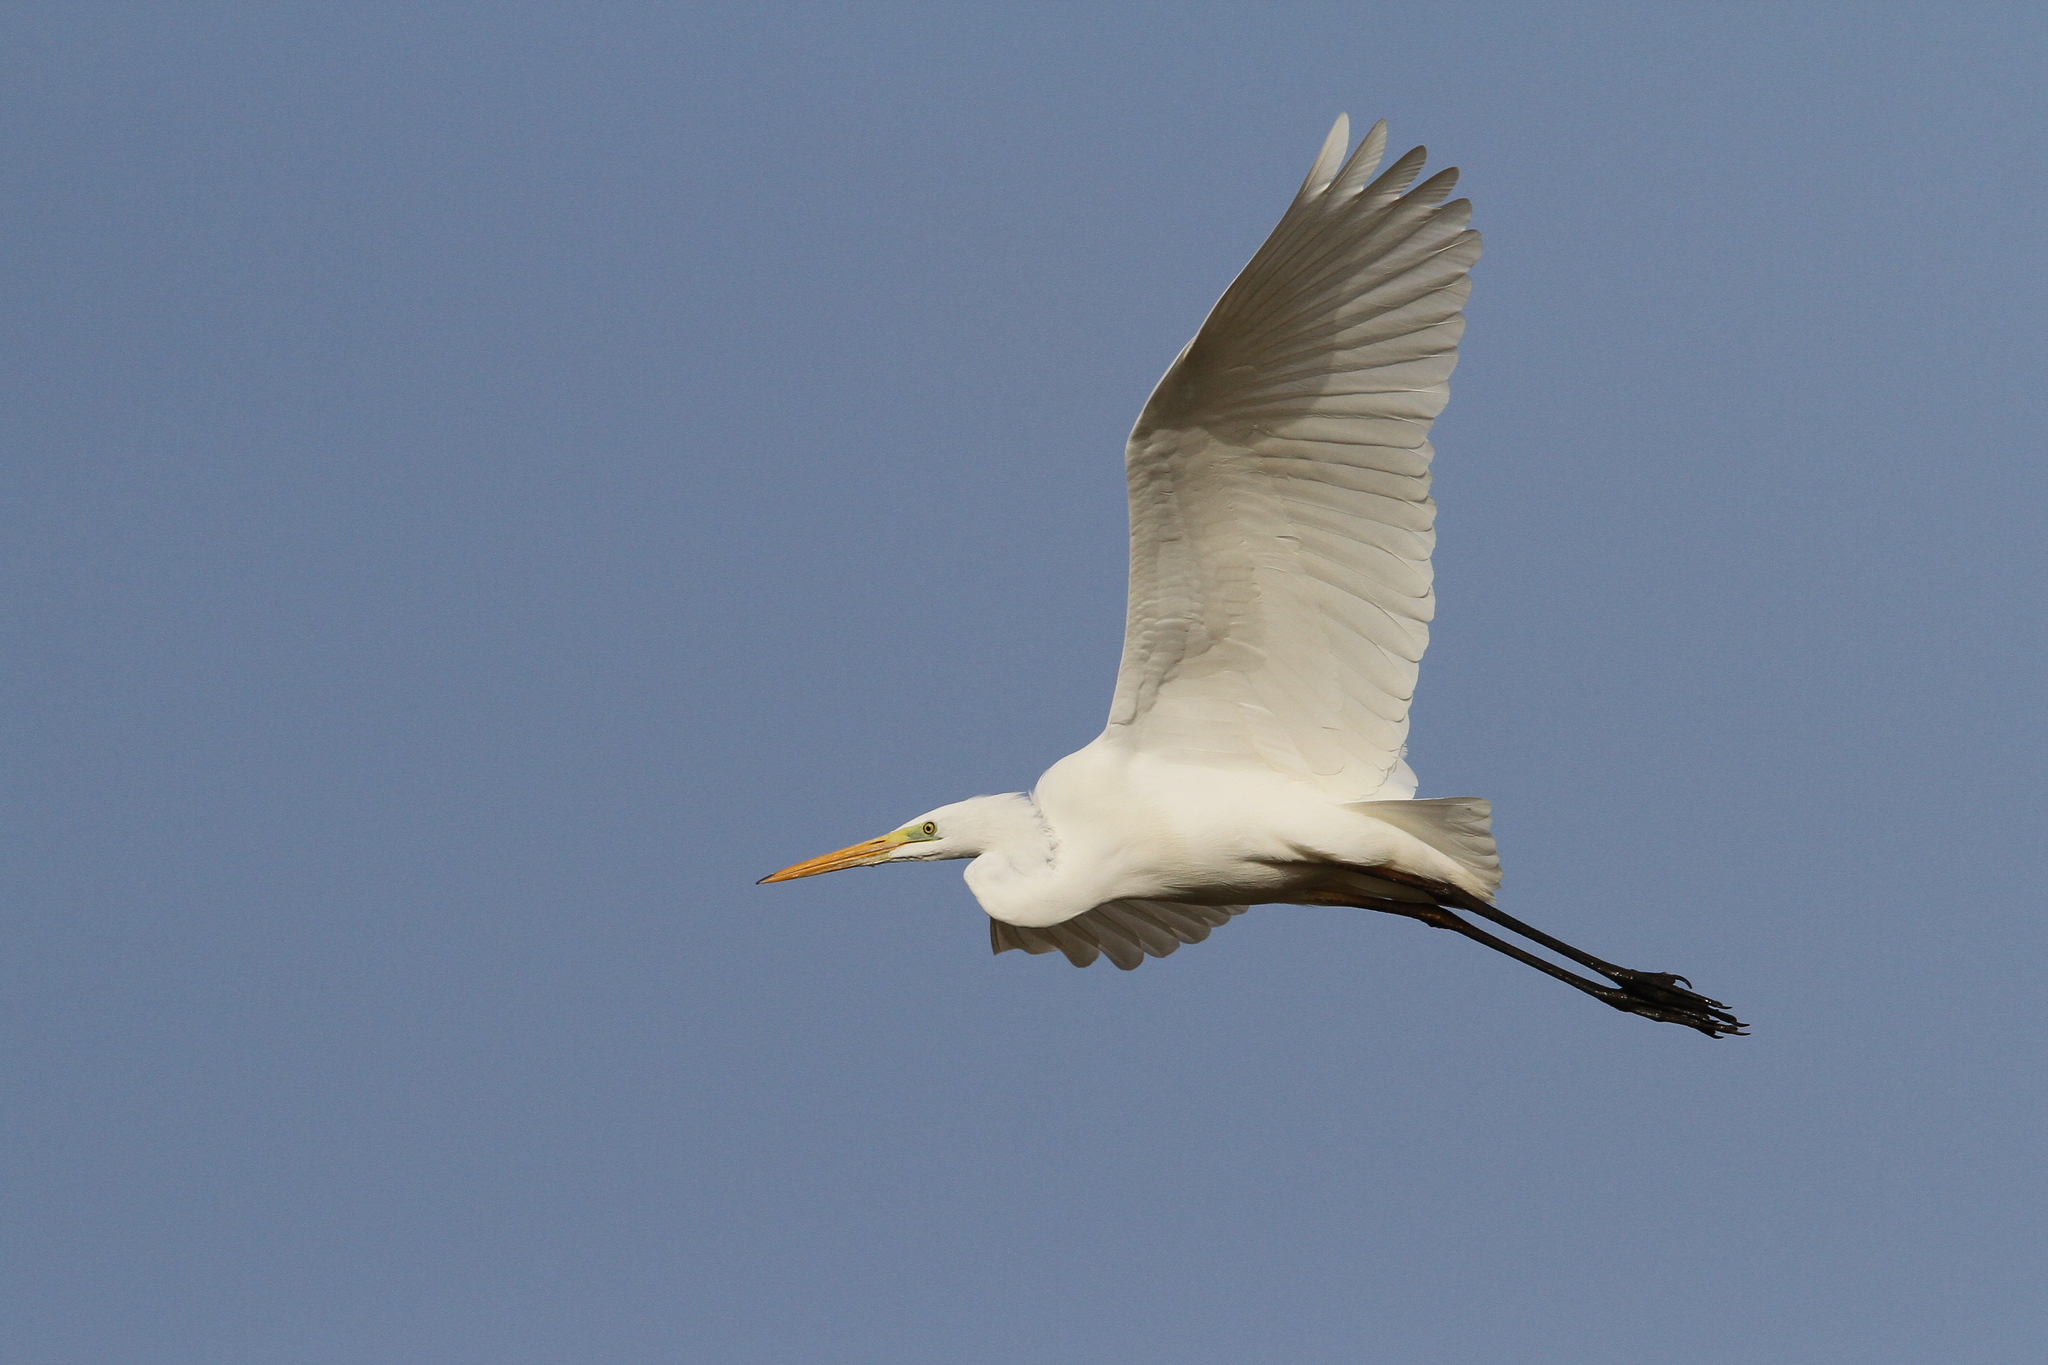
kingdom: Animalia
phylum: Chordata
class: Aves
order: Pelecaniformes
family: Ardeidae
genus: Ardea
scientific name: Ardea alba
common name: Great egret
